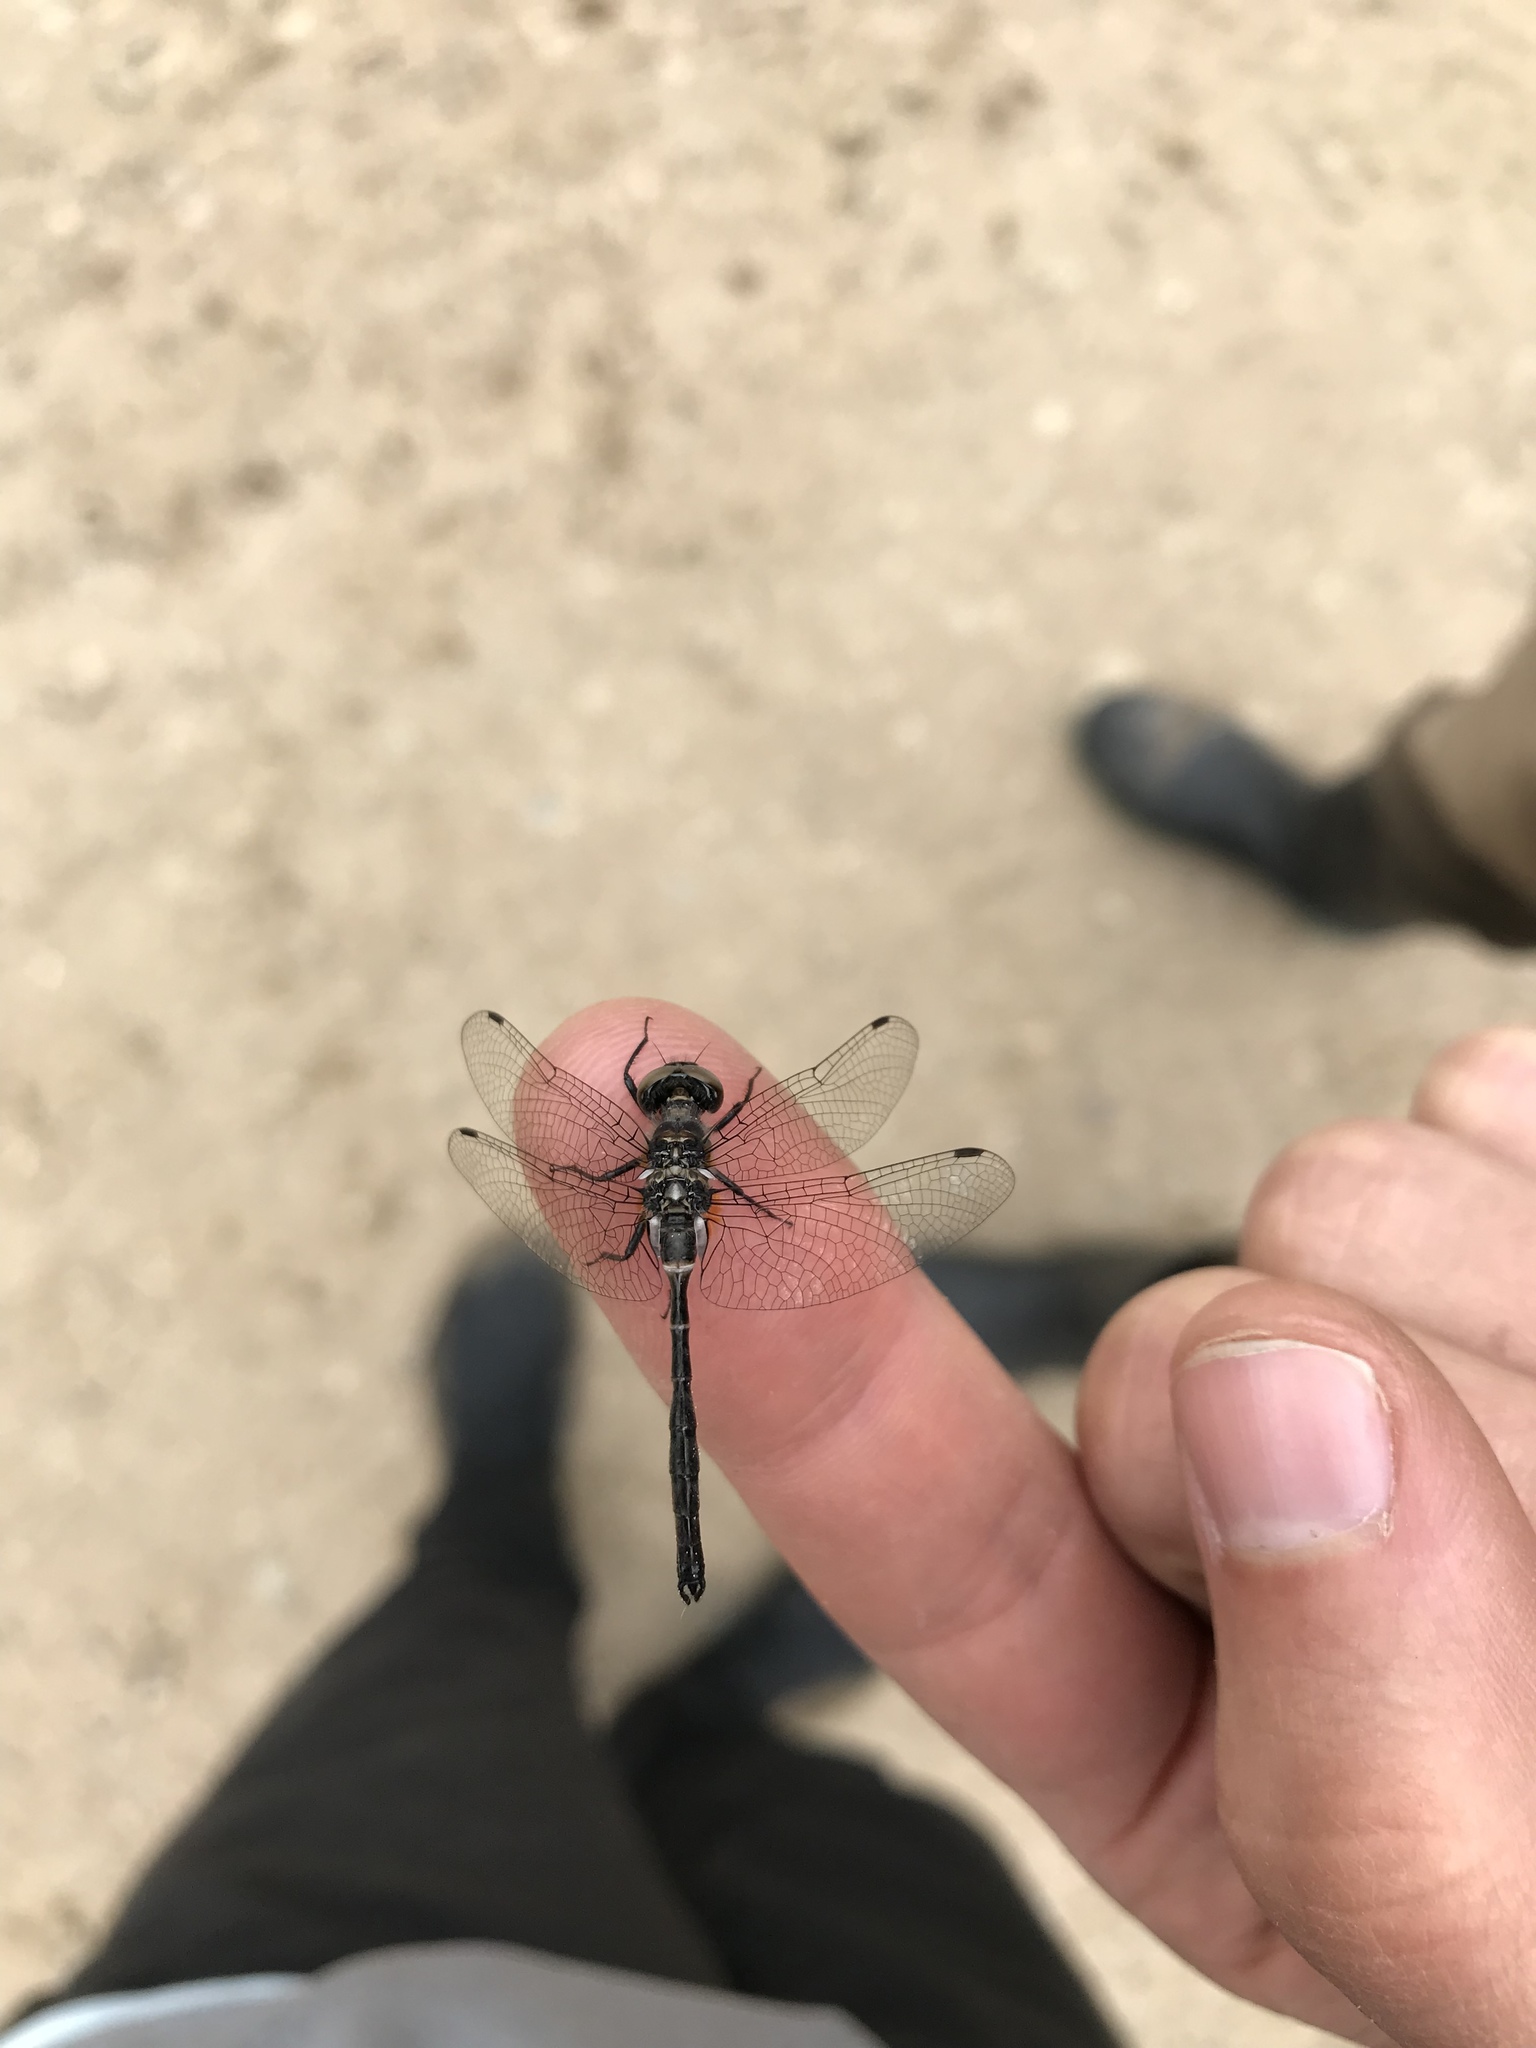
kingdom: Animalia
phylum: Arthropoda
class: Insecta
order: Odonata
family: Corduliidae
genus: Williamsonia
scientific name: Williamsonia fletcheri
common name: Ebony boghaunter
